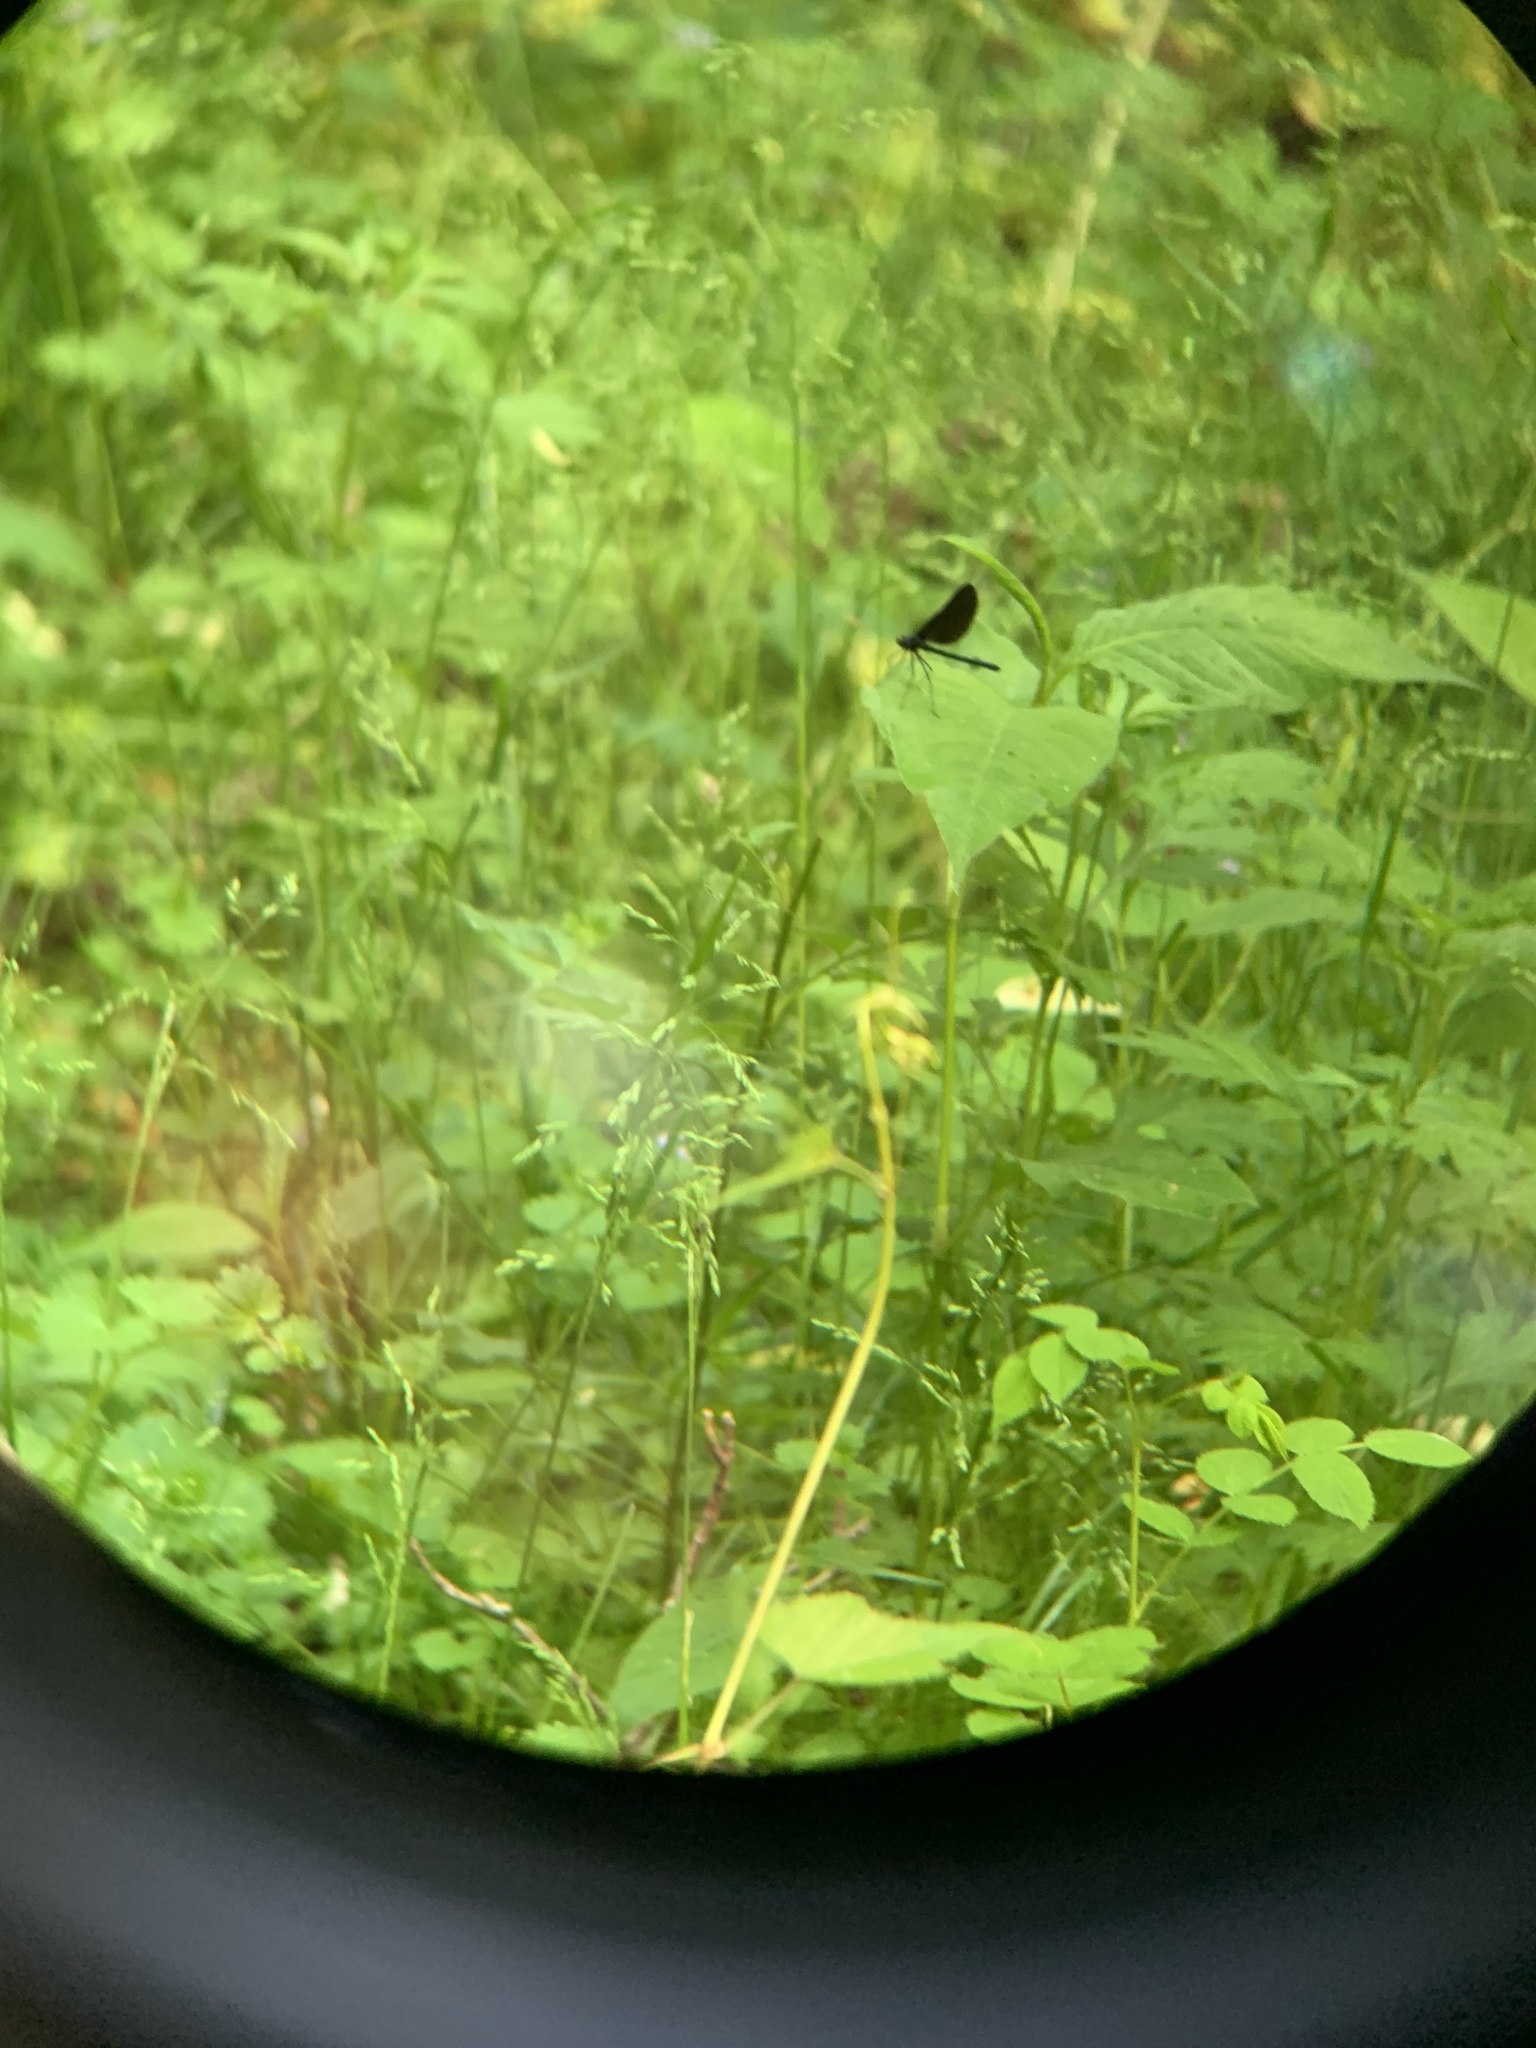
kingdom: Animalia
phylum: Arthropoda
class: Insecta
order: Odonata
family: Calopterygidae
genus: Calopteryx
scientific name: Calopteryx maculata
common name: Ebony jewelwing
